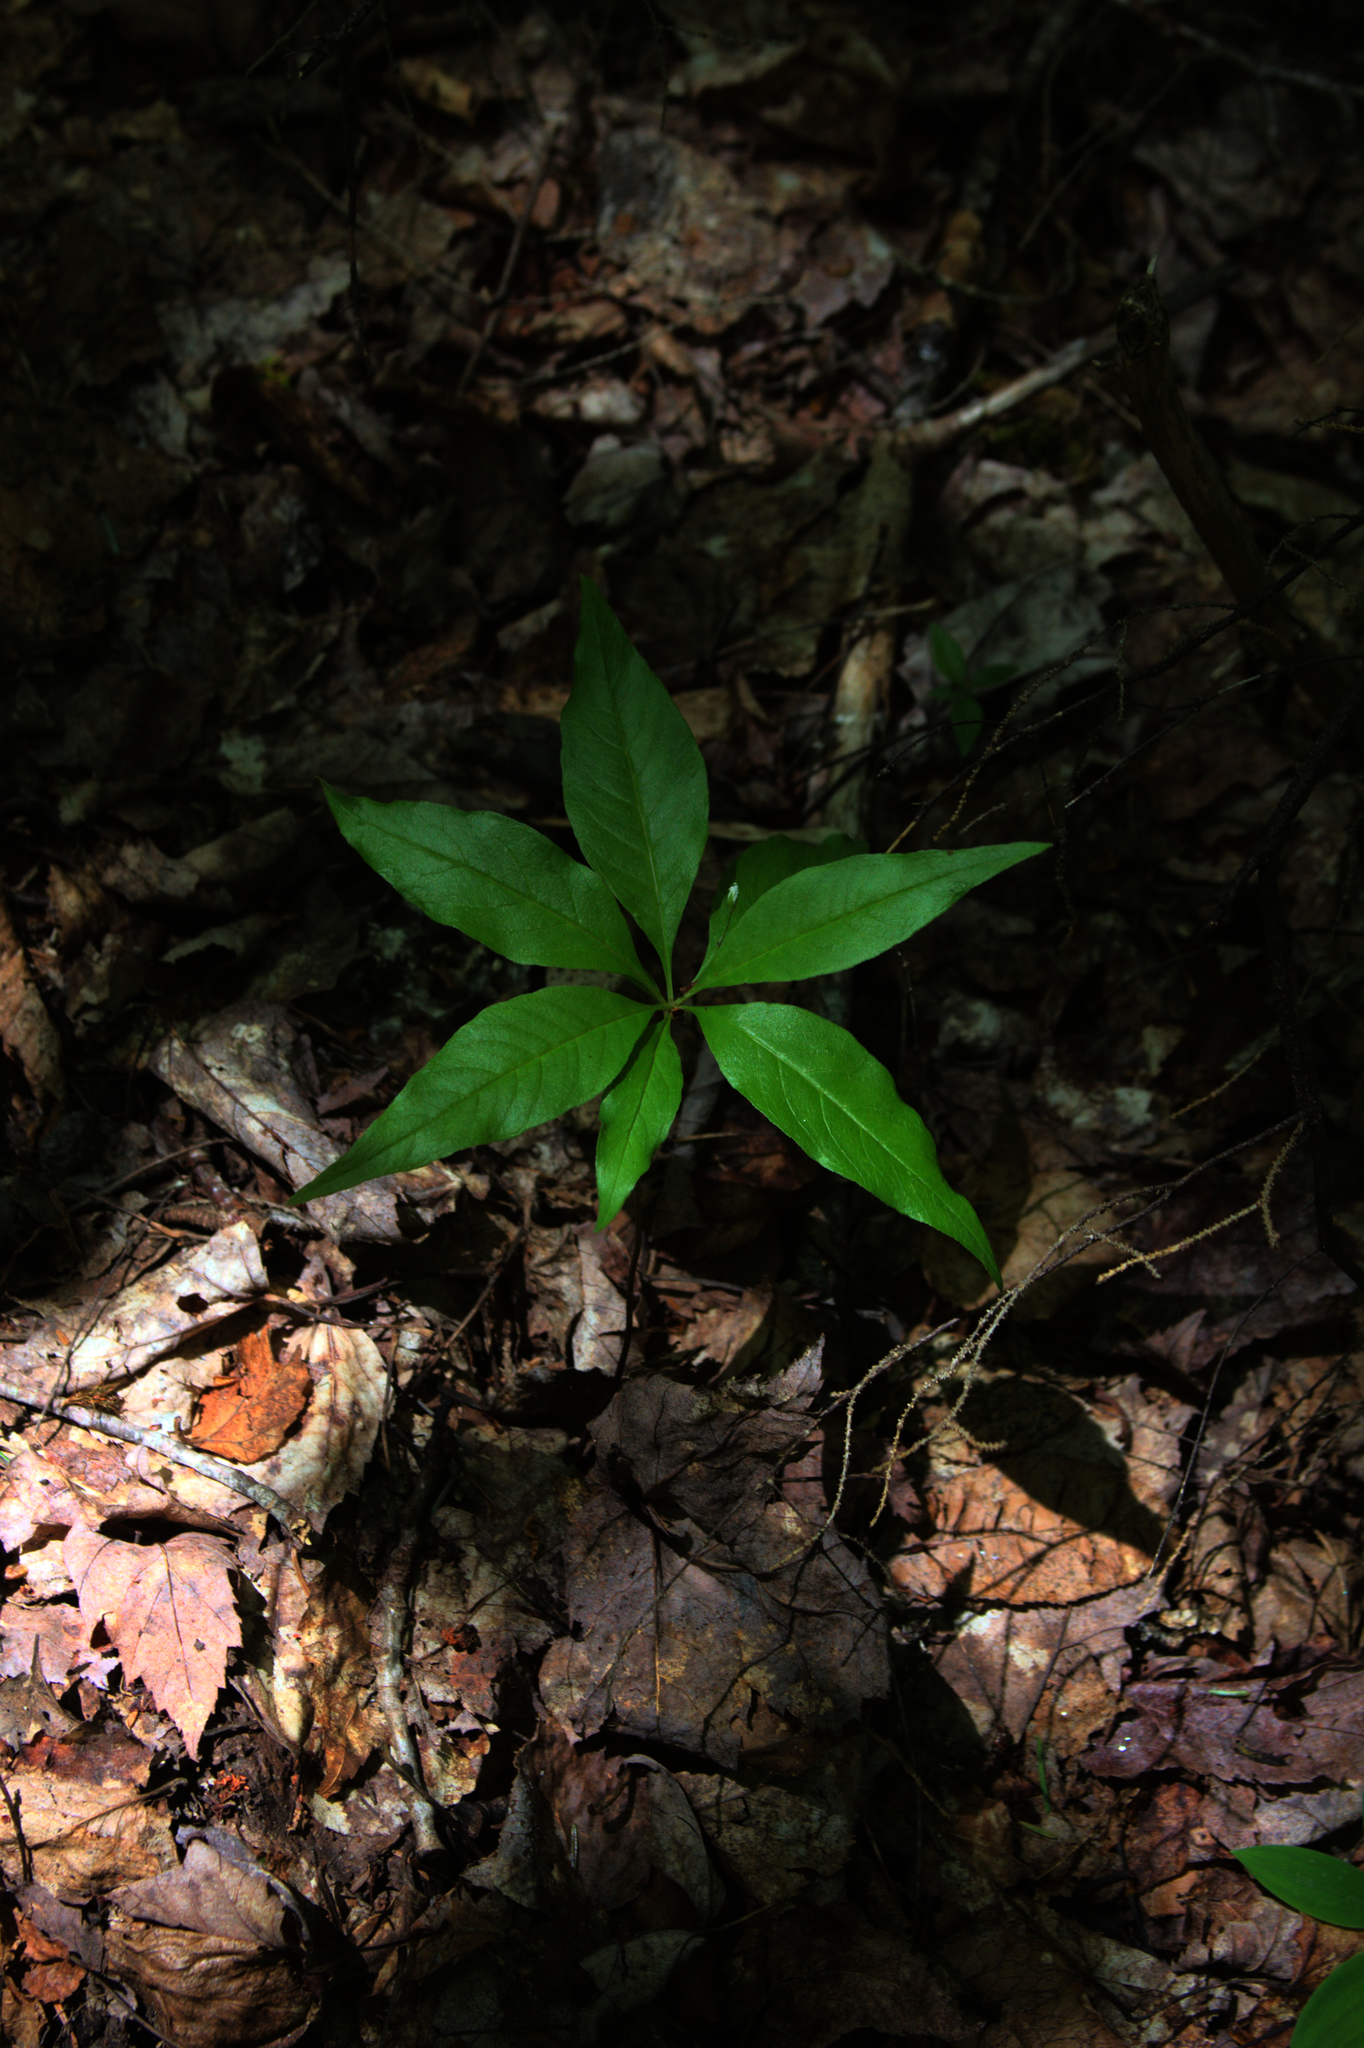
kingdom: Plantae
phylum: Tracheophyta
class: Magnoliopsida
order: Ericales
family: Primulaceae
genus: Lysimachia
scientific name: Lysimachia borealis
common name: American starflower
